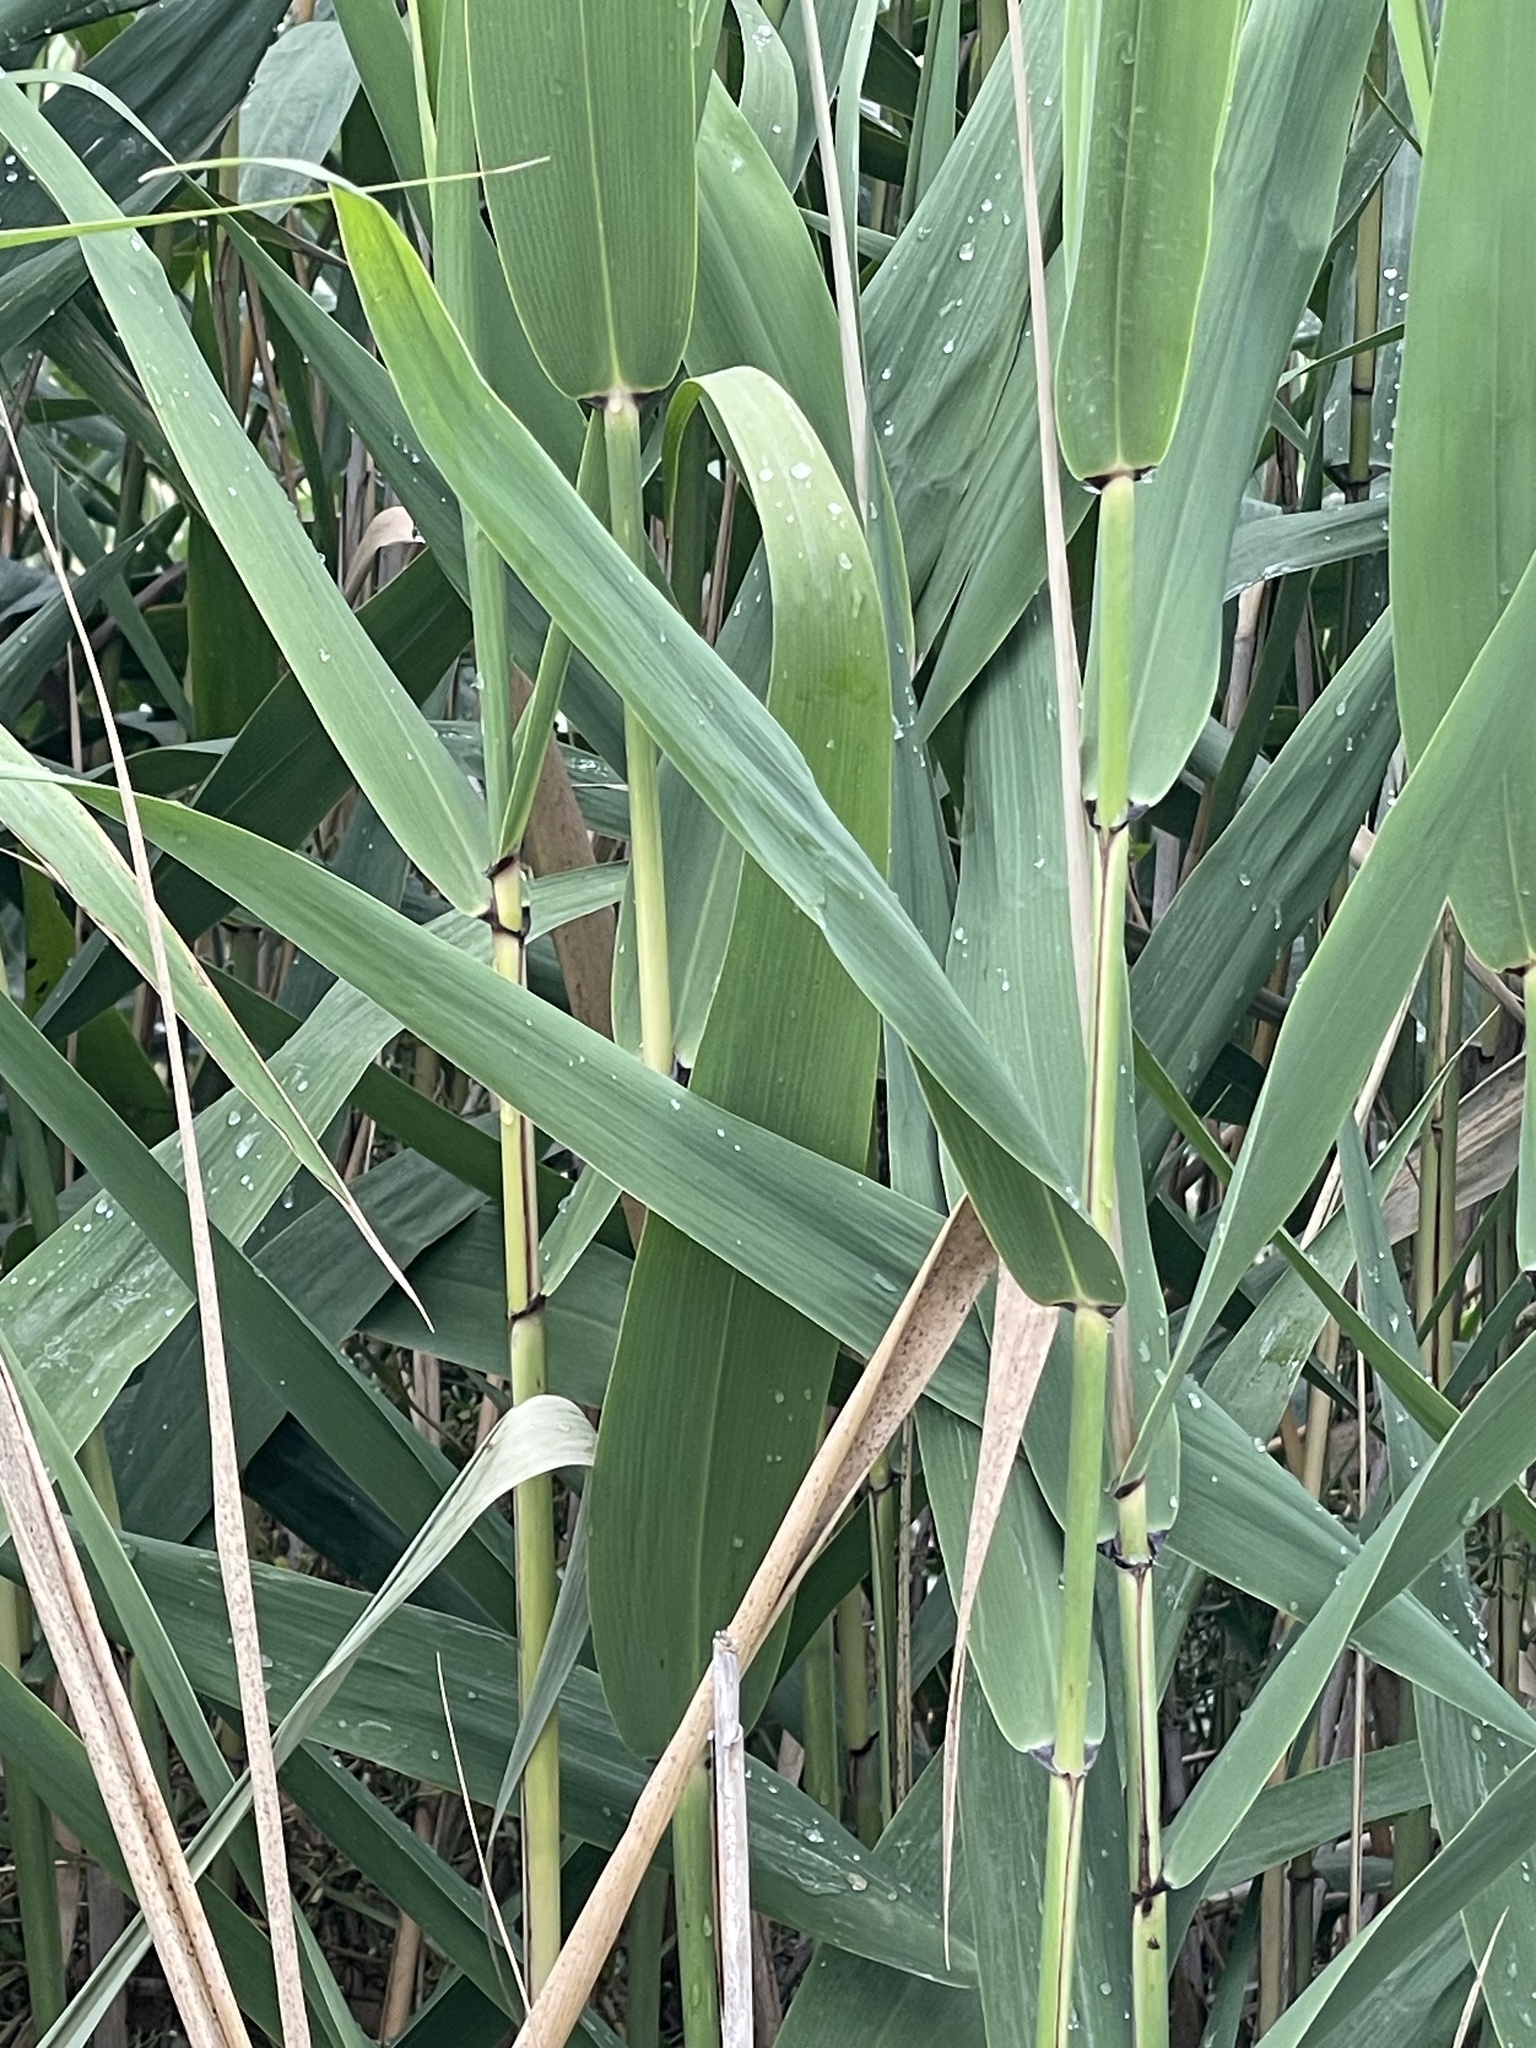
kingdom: Plantae
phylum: Tracheophyta
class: Liliopsida
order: Poales
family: Poaceae
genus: Phragmites
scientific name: Phragmites australis
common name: Common reed
